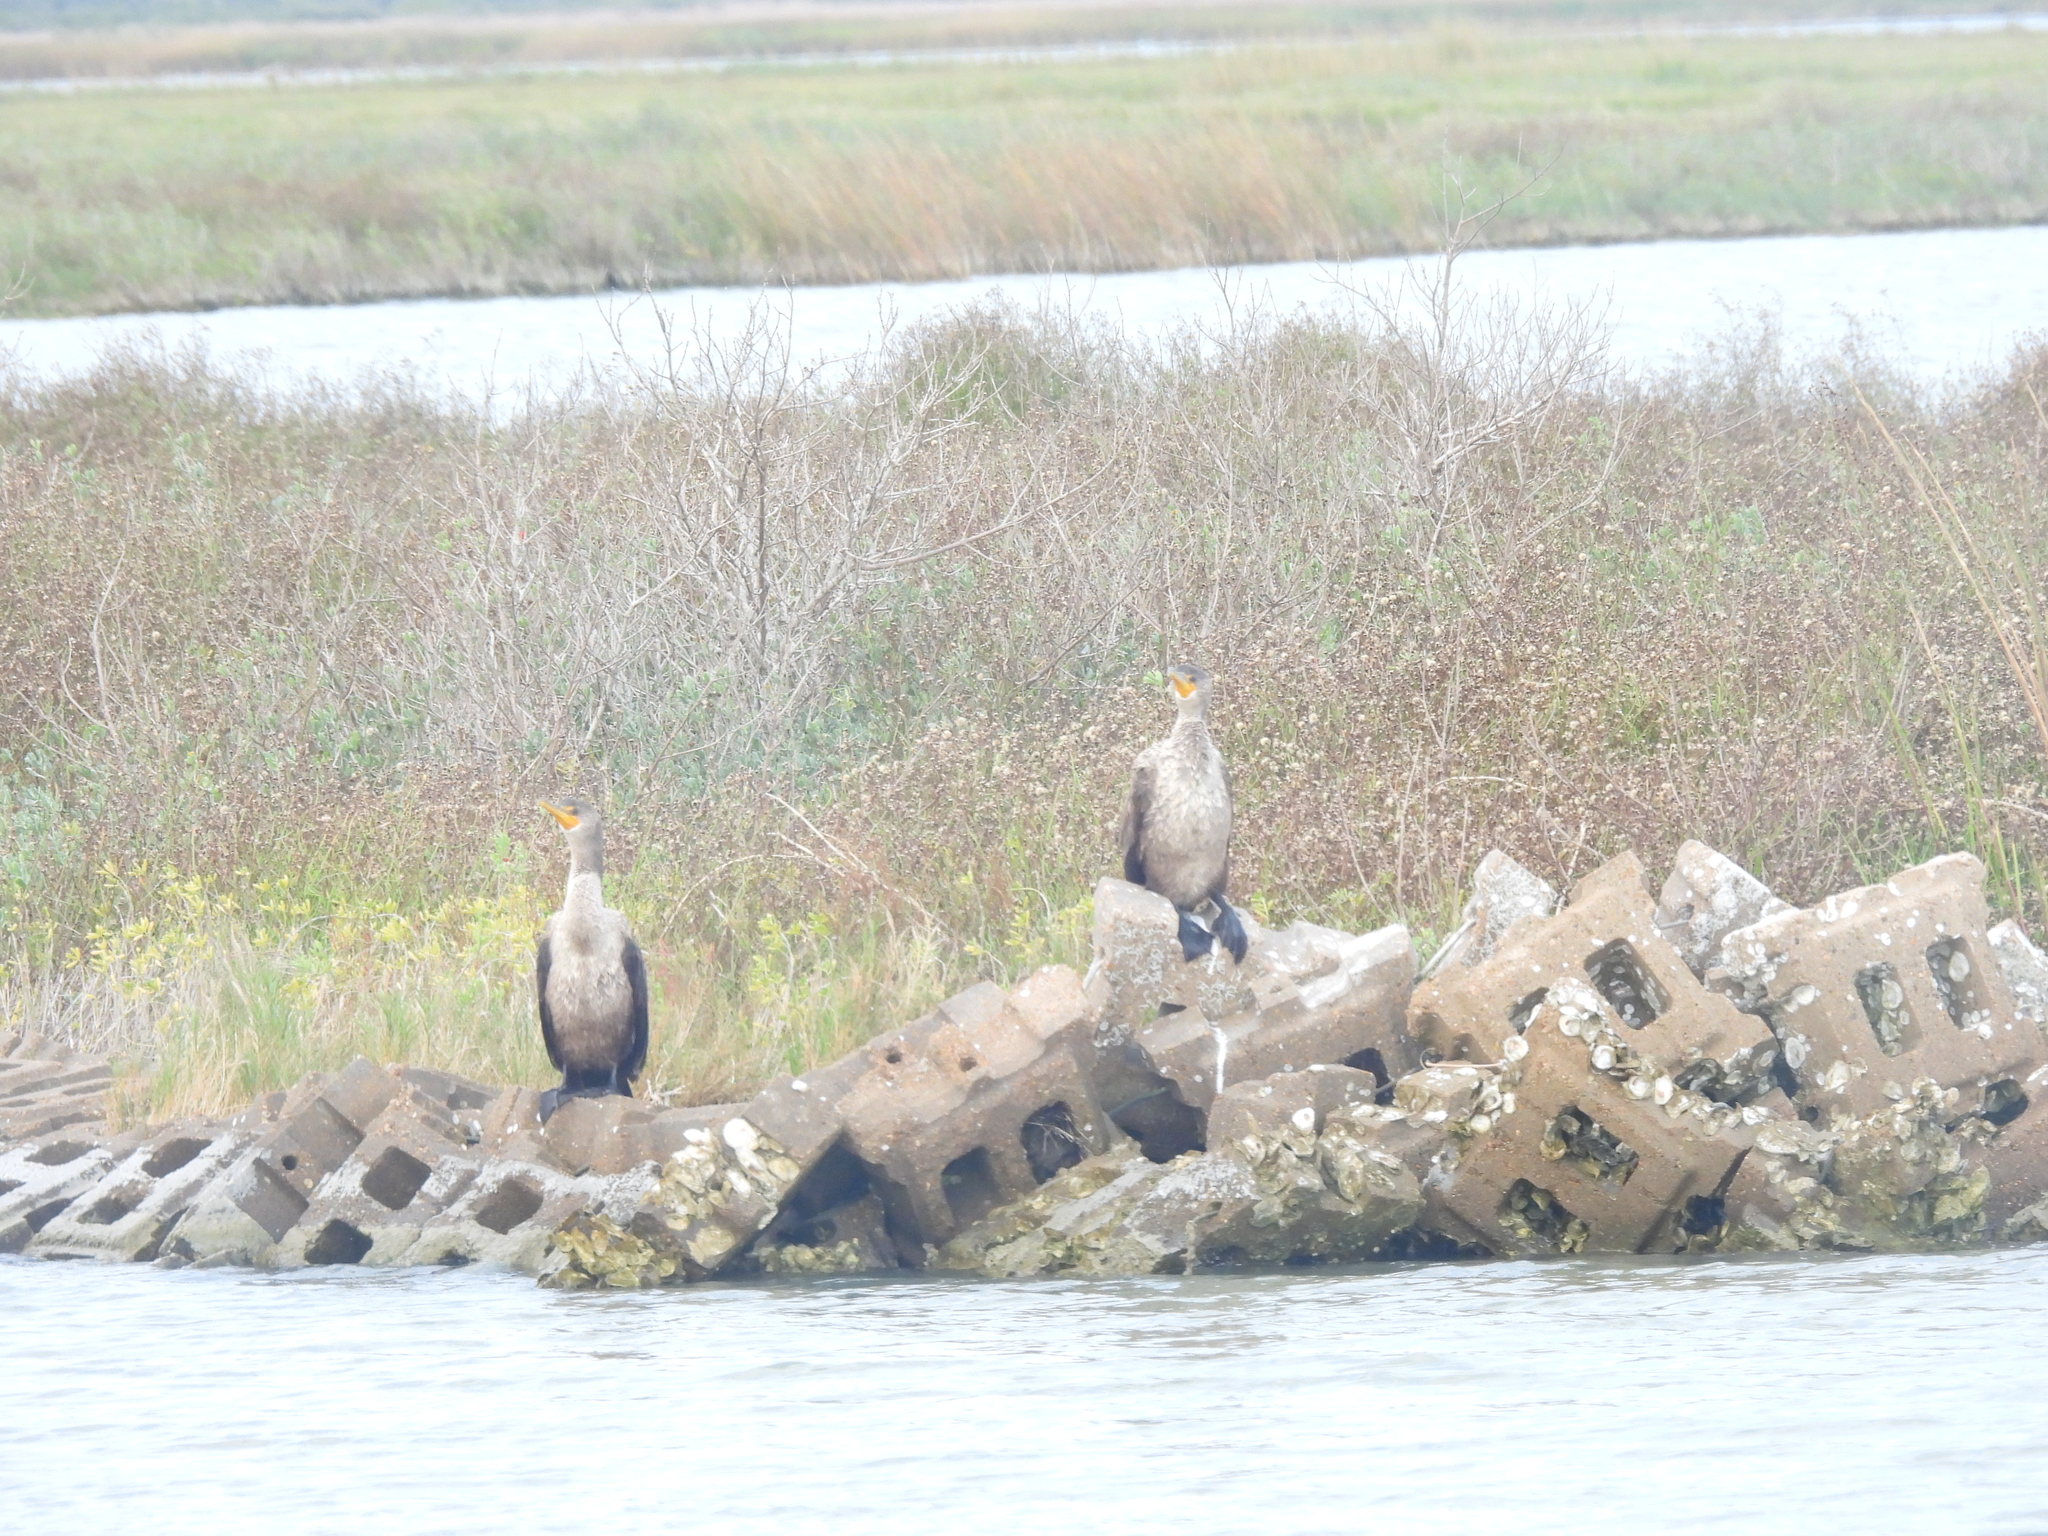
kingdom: Animalia
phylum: Chordata
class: Aves
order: Suliformes
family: Phalacrocoracidae
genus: Phalacrocorax
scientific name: Phalacrocorax auritus
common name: Double-crested cormorant
